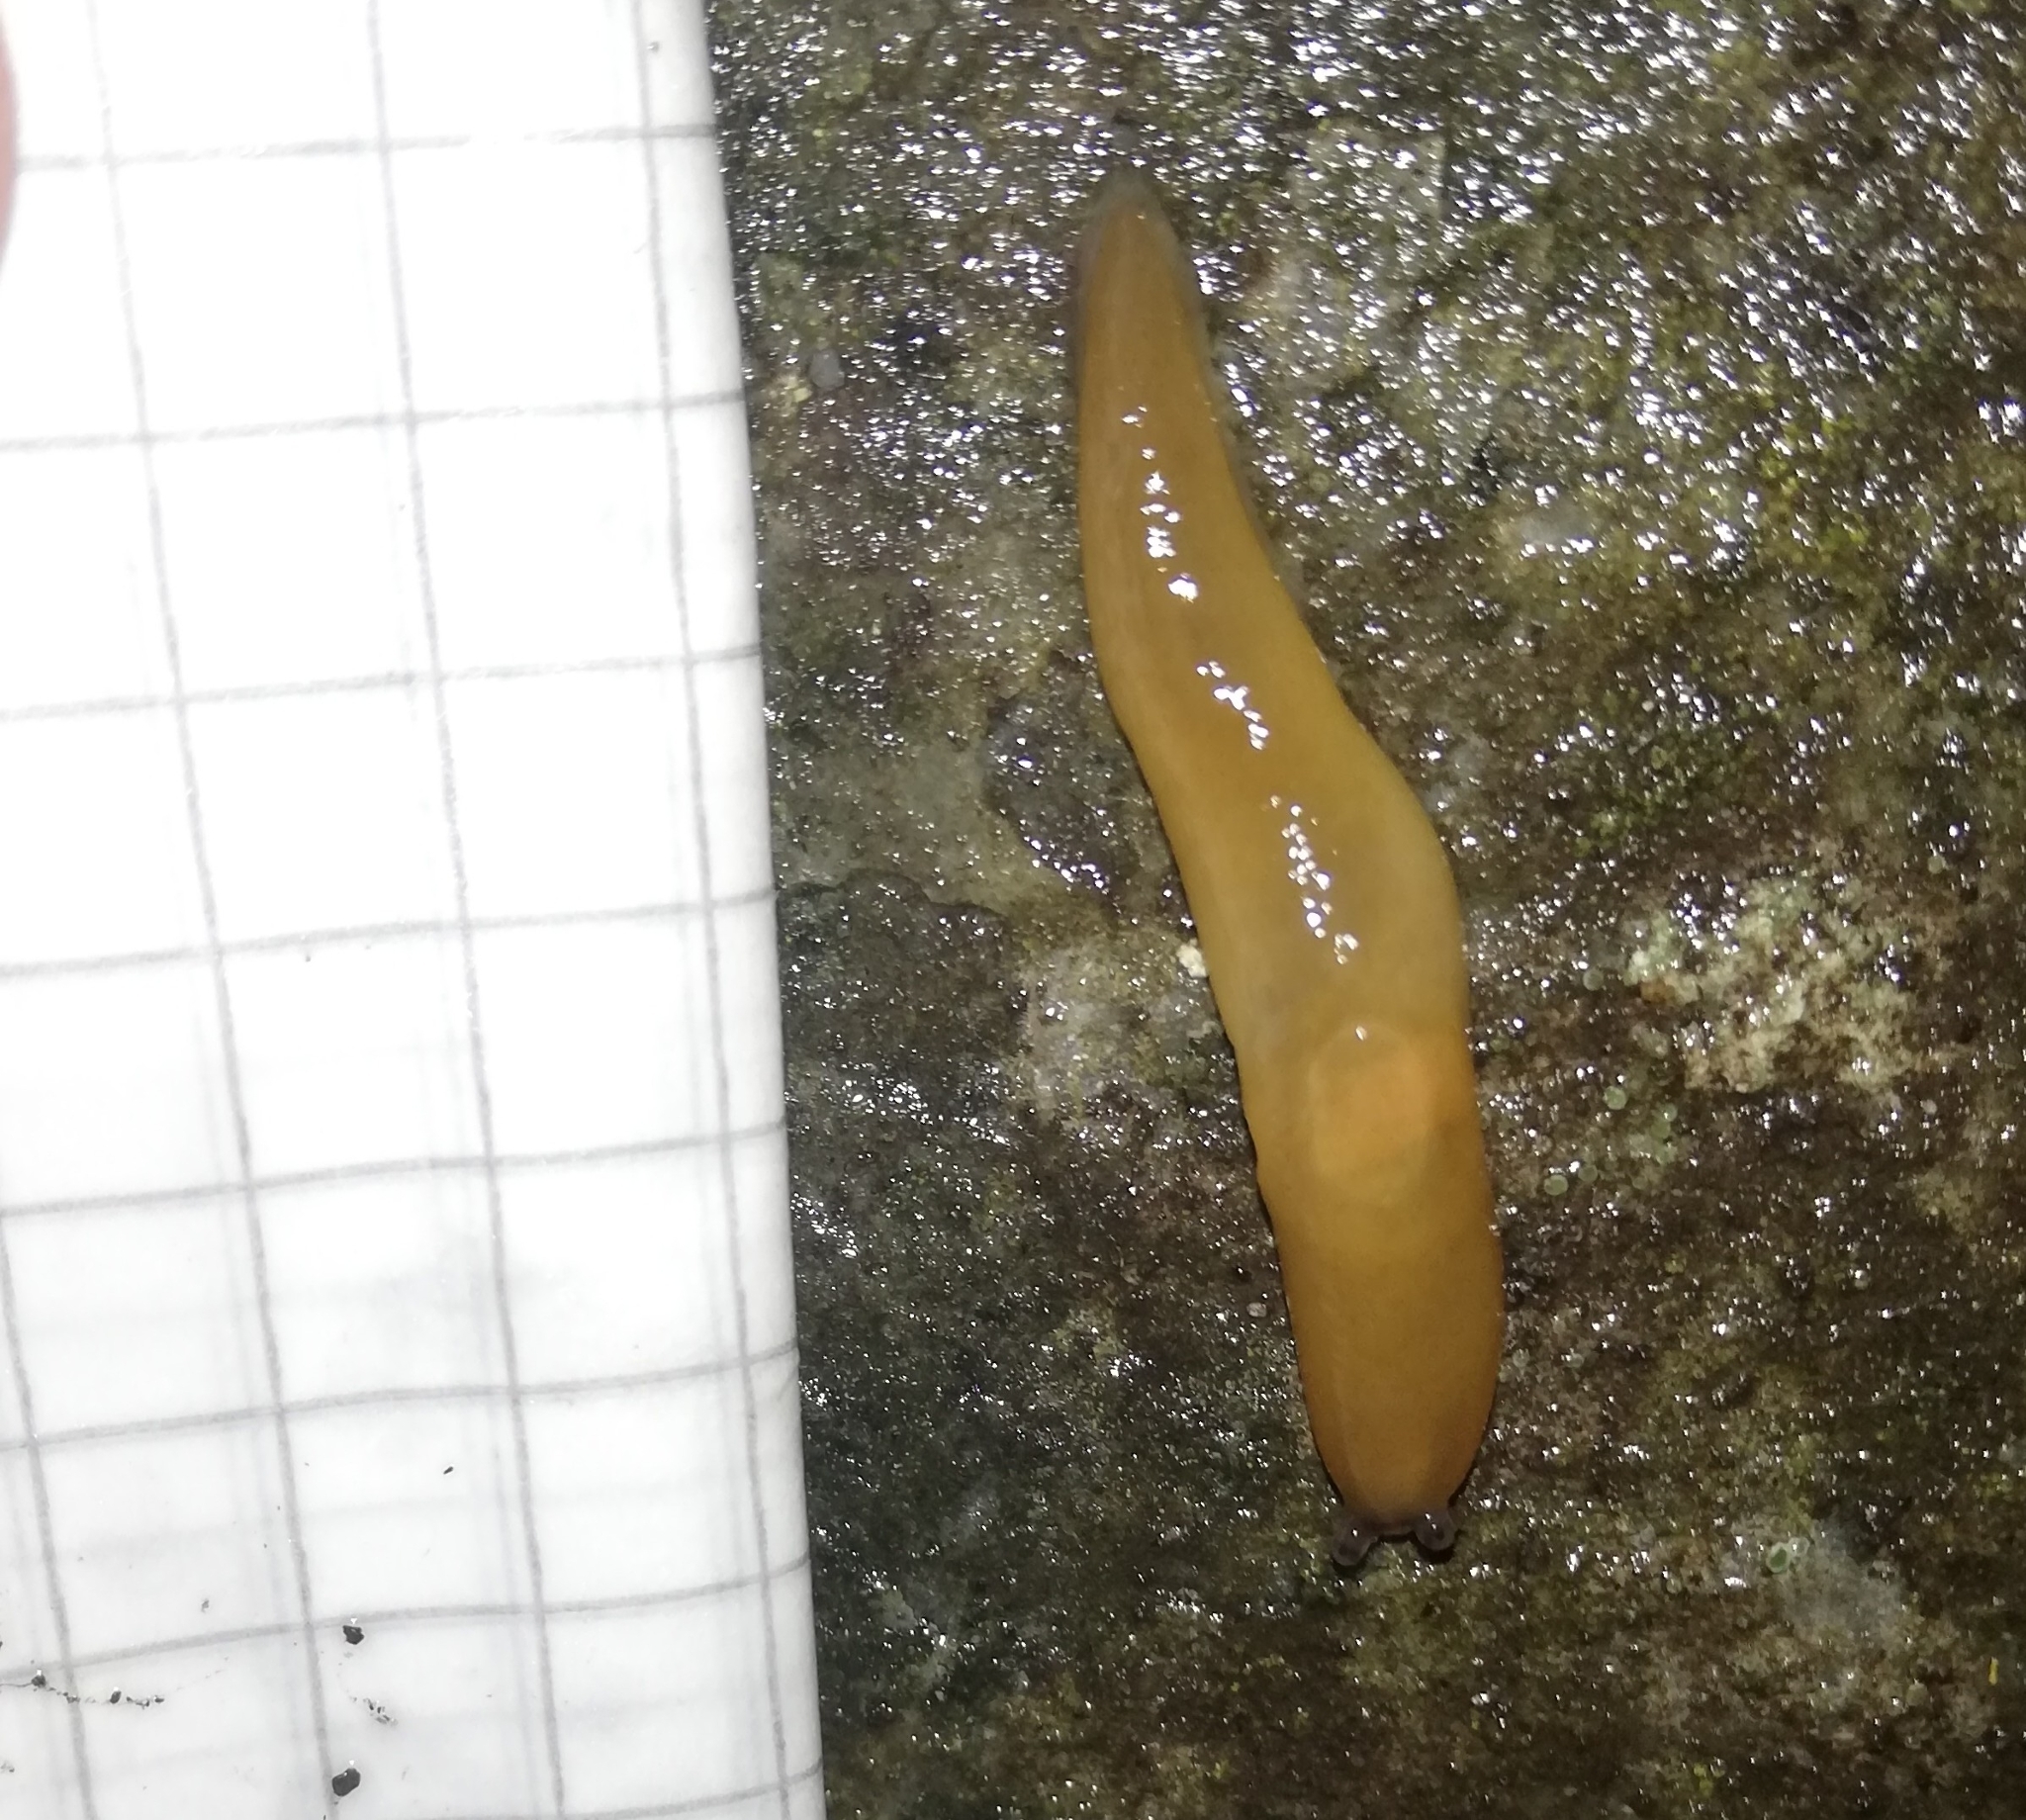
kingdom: Animalia
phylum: Mollusca
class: Gastropoda
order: Stylommatophora
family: Limacidae
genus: Malacolimax
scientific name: Malacolimax tenellus
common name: Lemon slug
